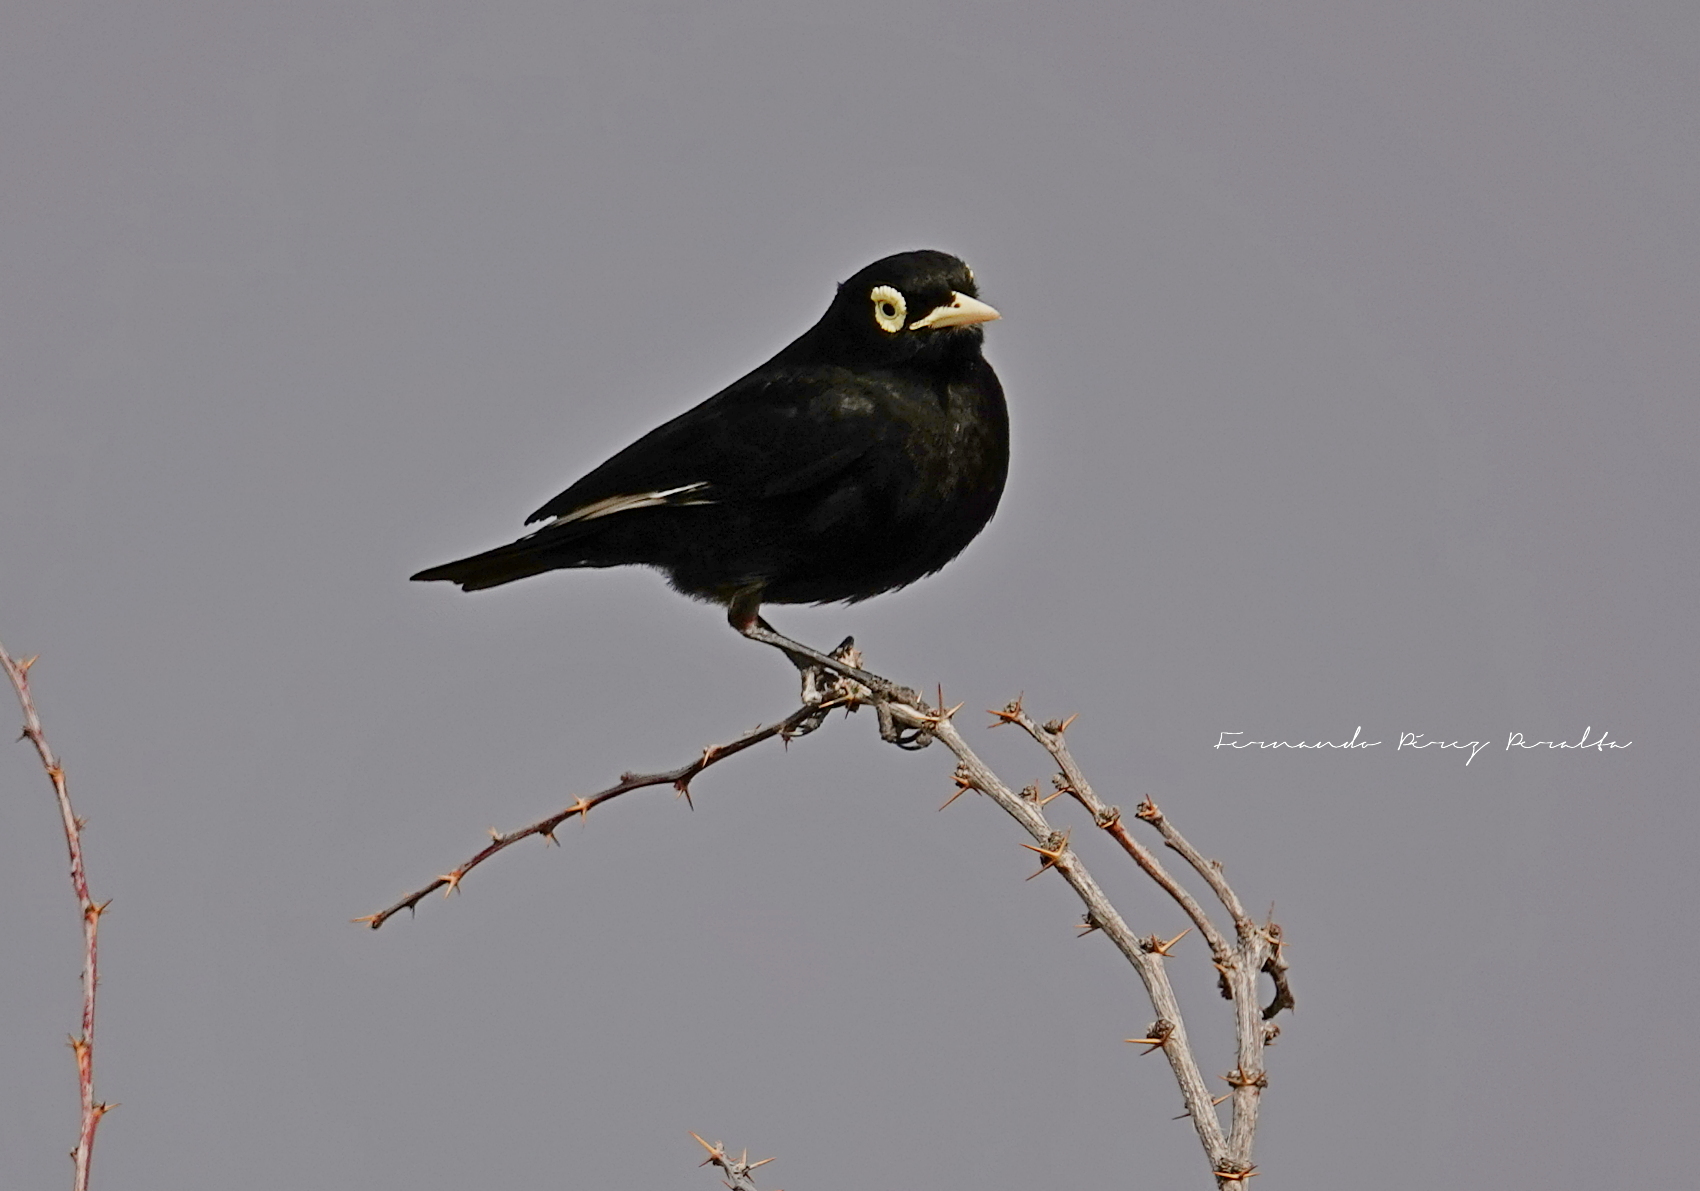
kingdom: Animalia
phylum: Chordata
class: Aves
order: Passeriformes
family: Tyrannidae
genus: Hymenops
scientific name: Hymenops perspicillatus
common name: Spectacled tyrant
